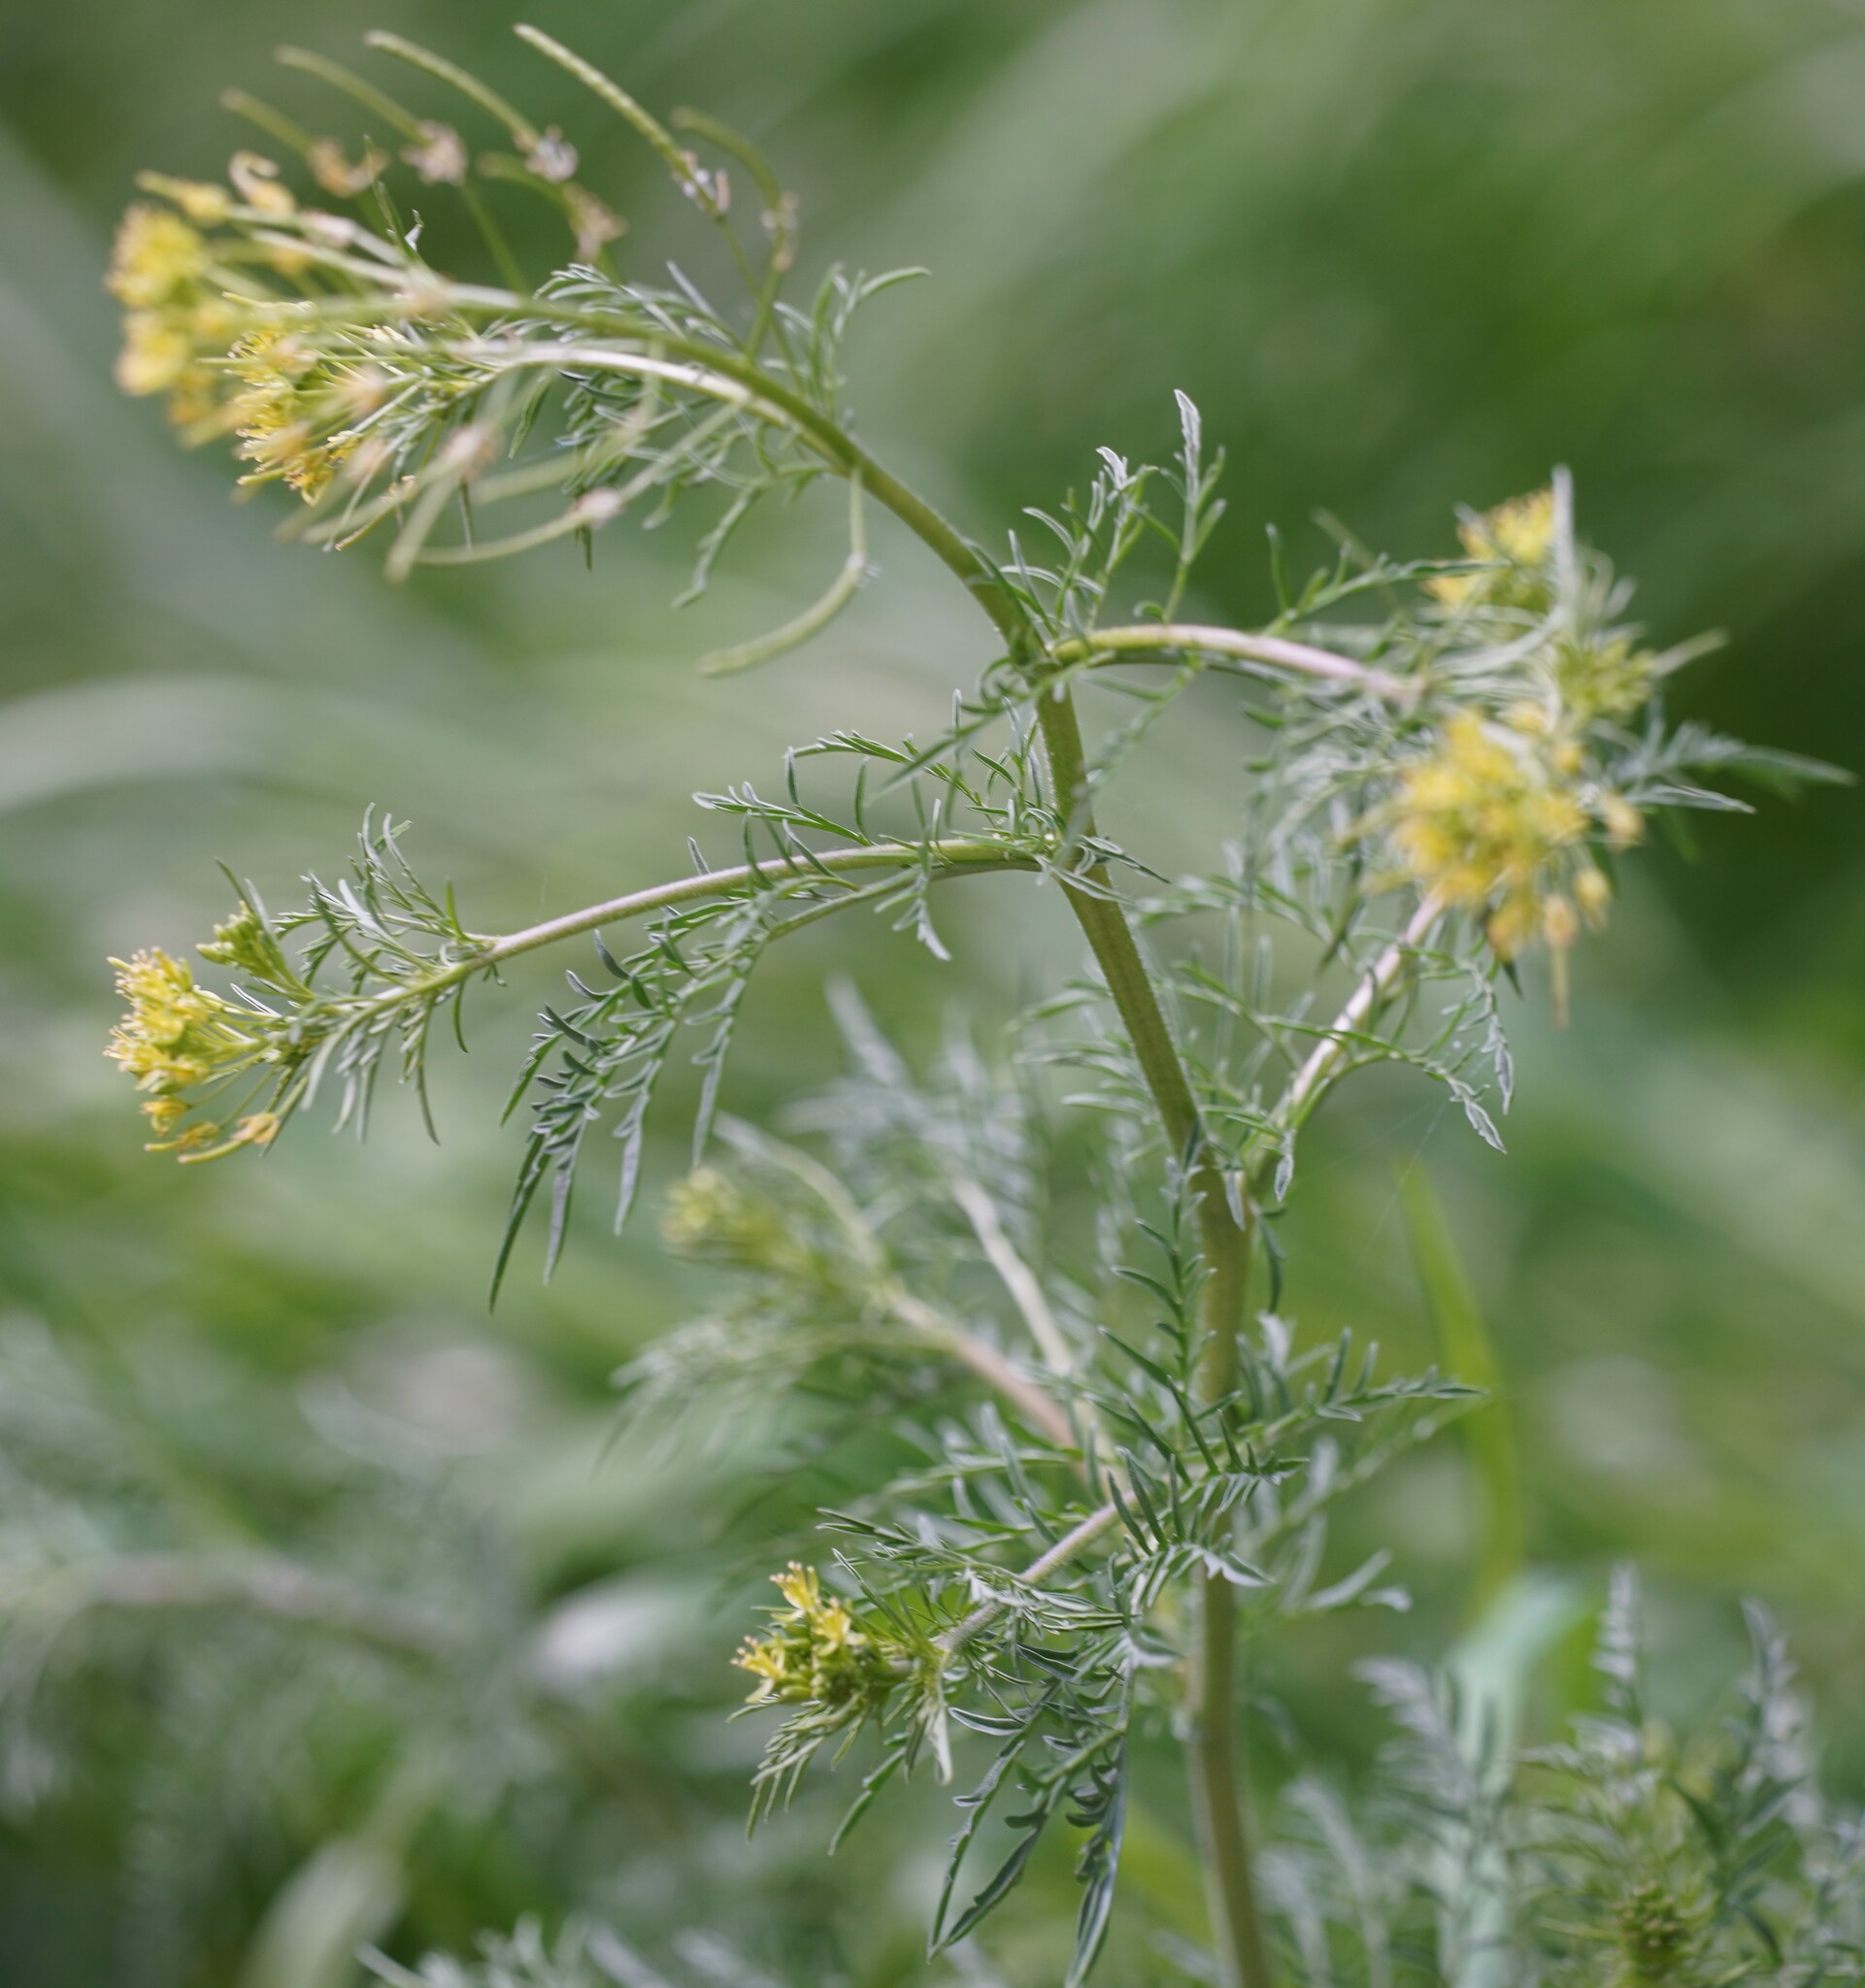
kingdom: Plantae
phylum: Tracheophyta
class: Magnoliopsida
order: Brassicales
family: Brassicaceae
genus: Descurainia
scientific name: Descurainia sophia
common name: Flixweed
